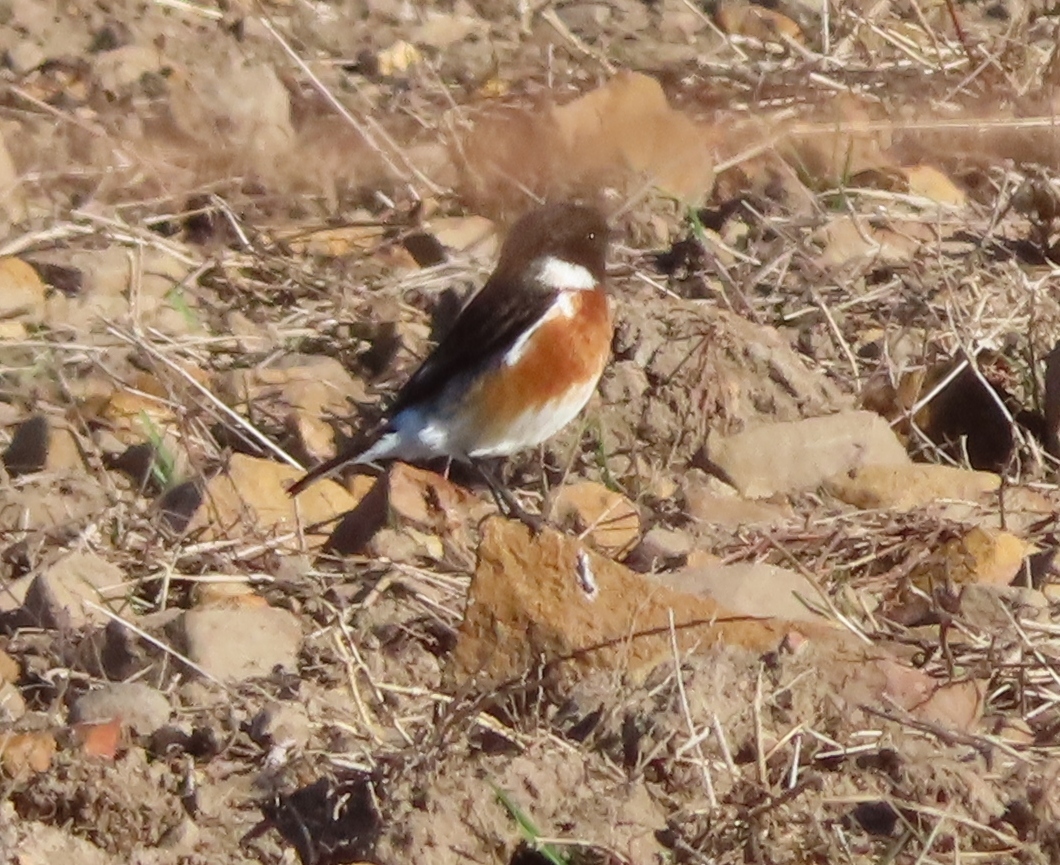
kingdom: Animalia
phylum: Chordata
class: Aves
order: Passeriformes
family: Muscicapidae
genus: Saxicola
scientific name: Saxicola torquatus
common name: African stonechat
